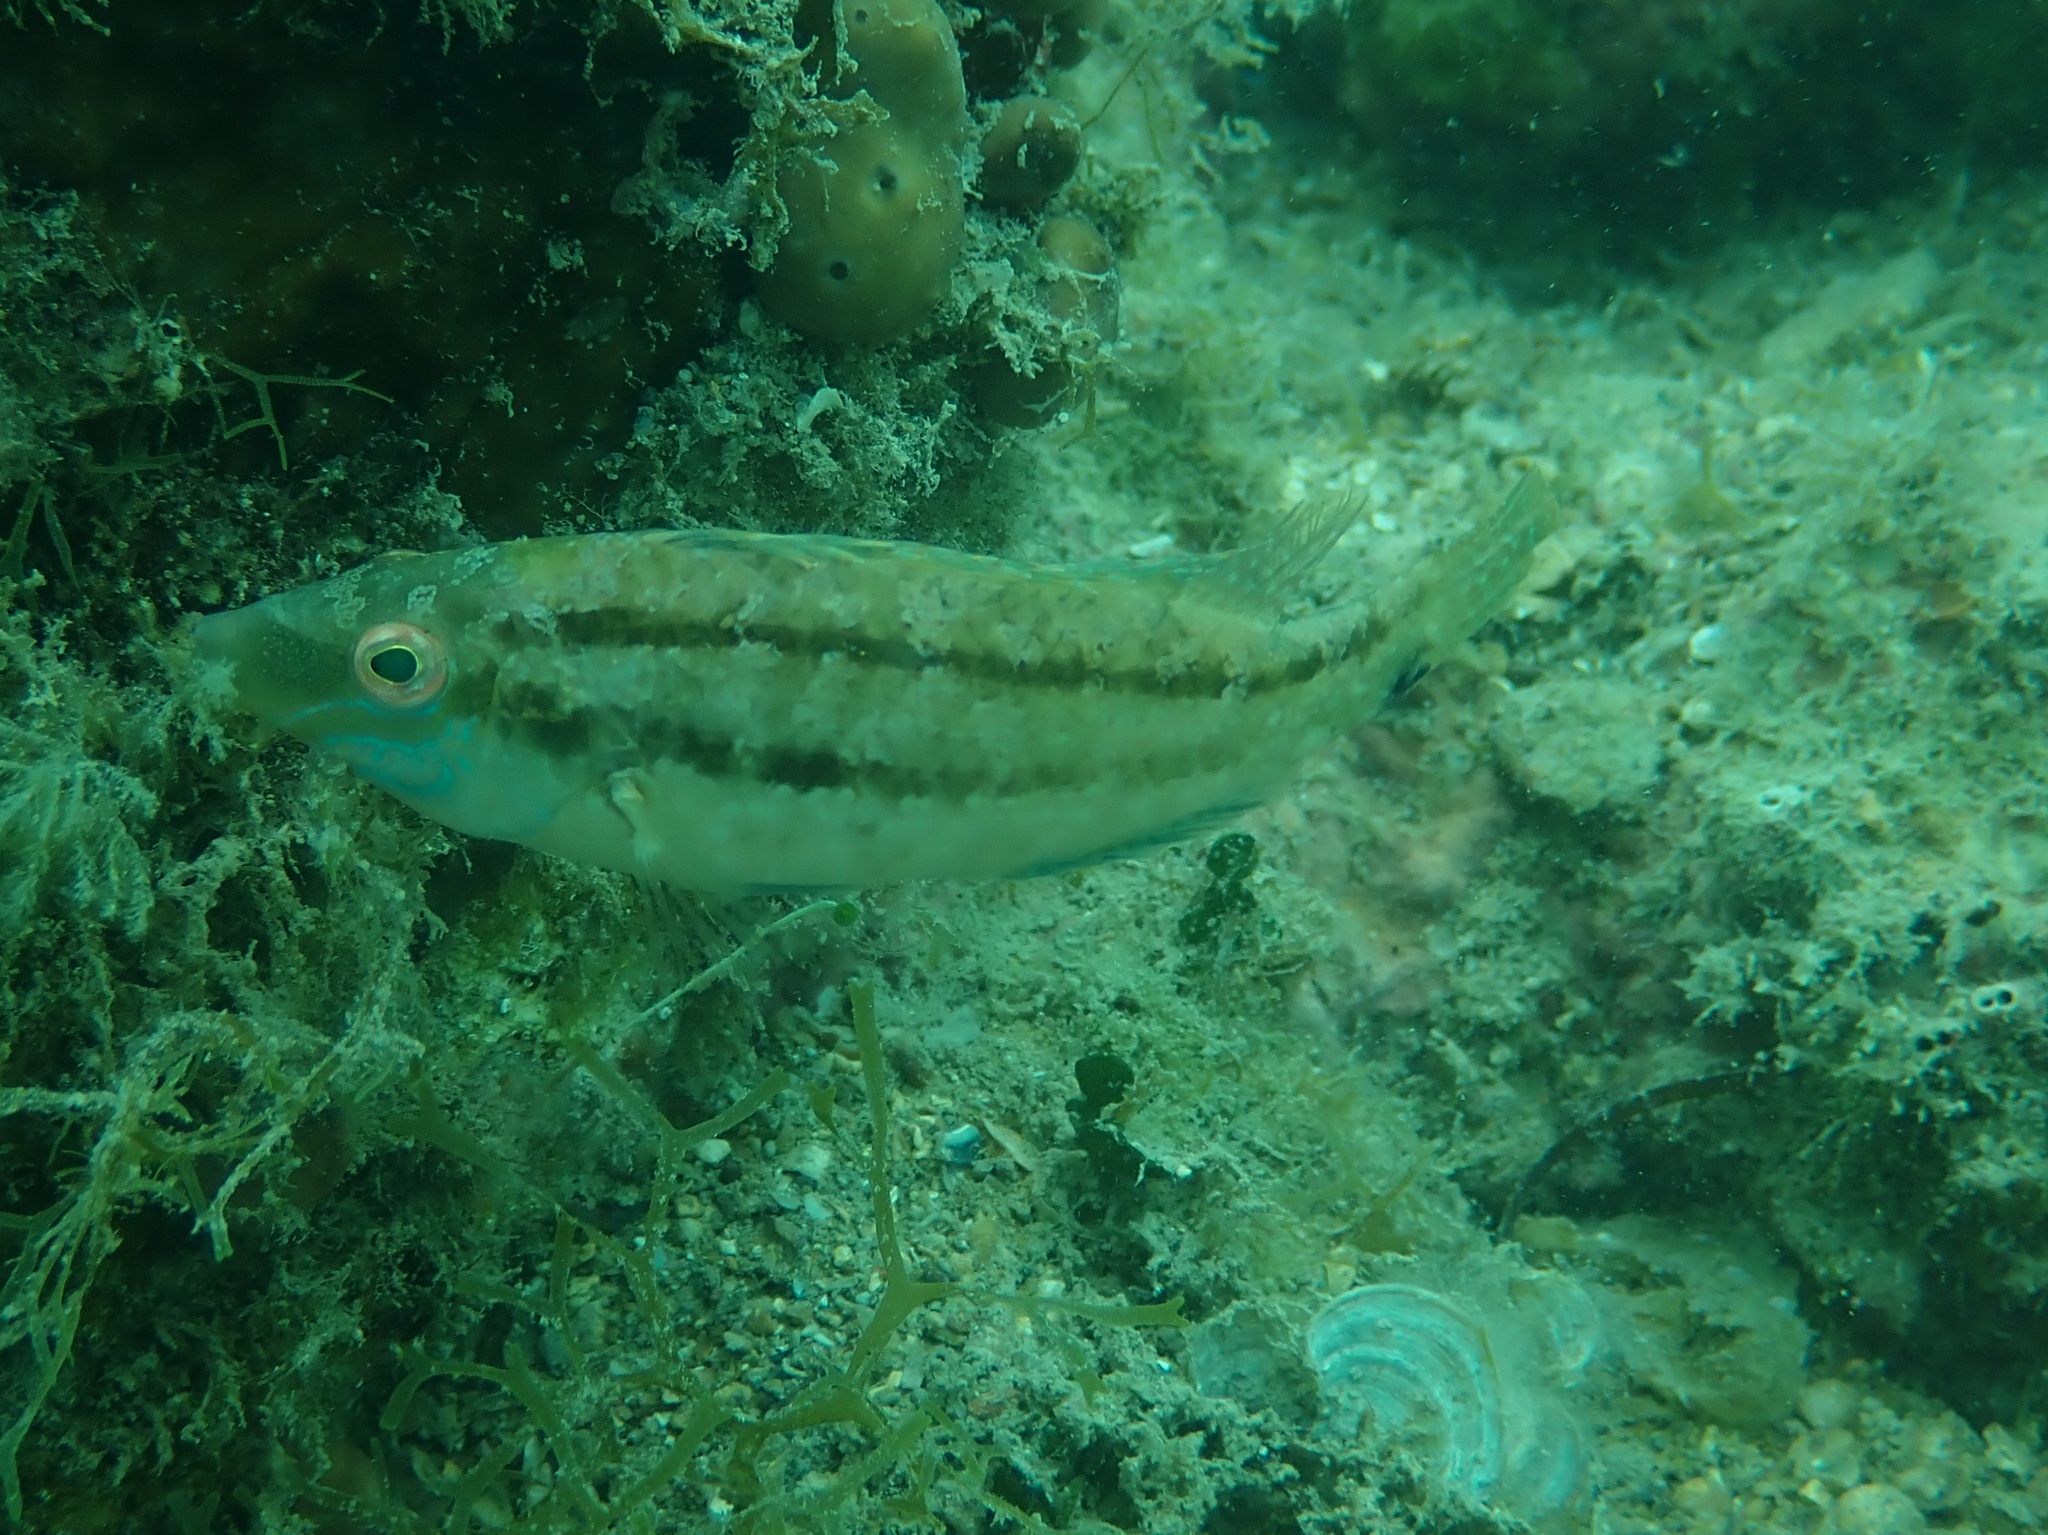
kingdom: Animalia
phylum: Chordata
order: Perciformes
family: Labridae
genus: Symphodus
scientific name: Symphodus cinereus
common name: Grey wrasse
